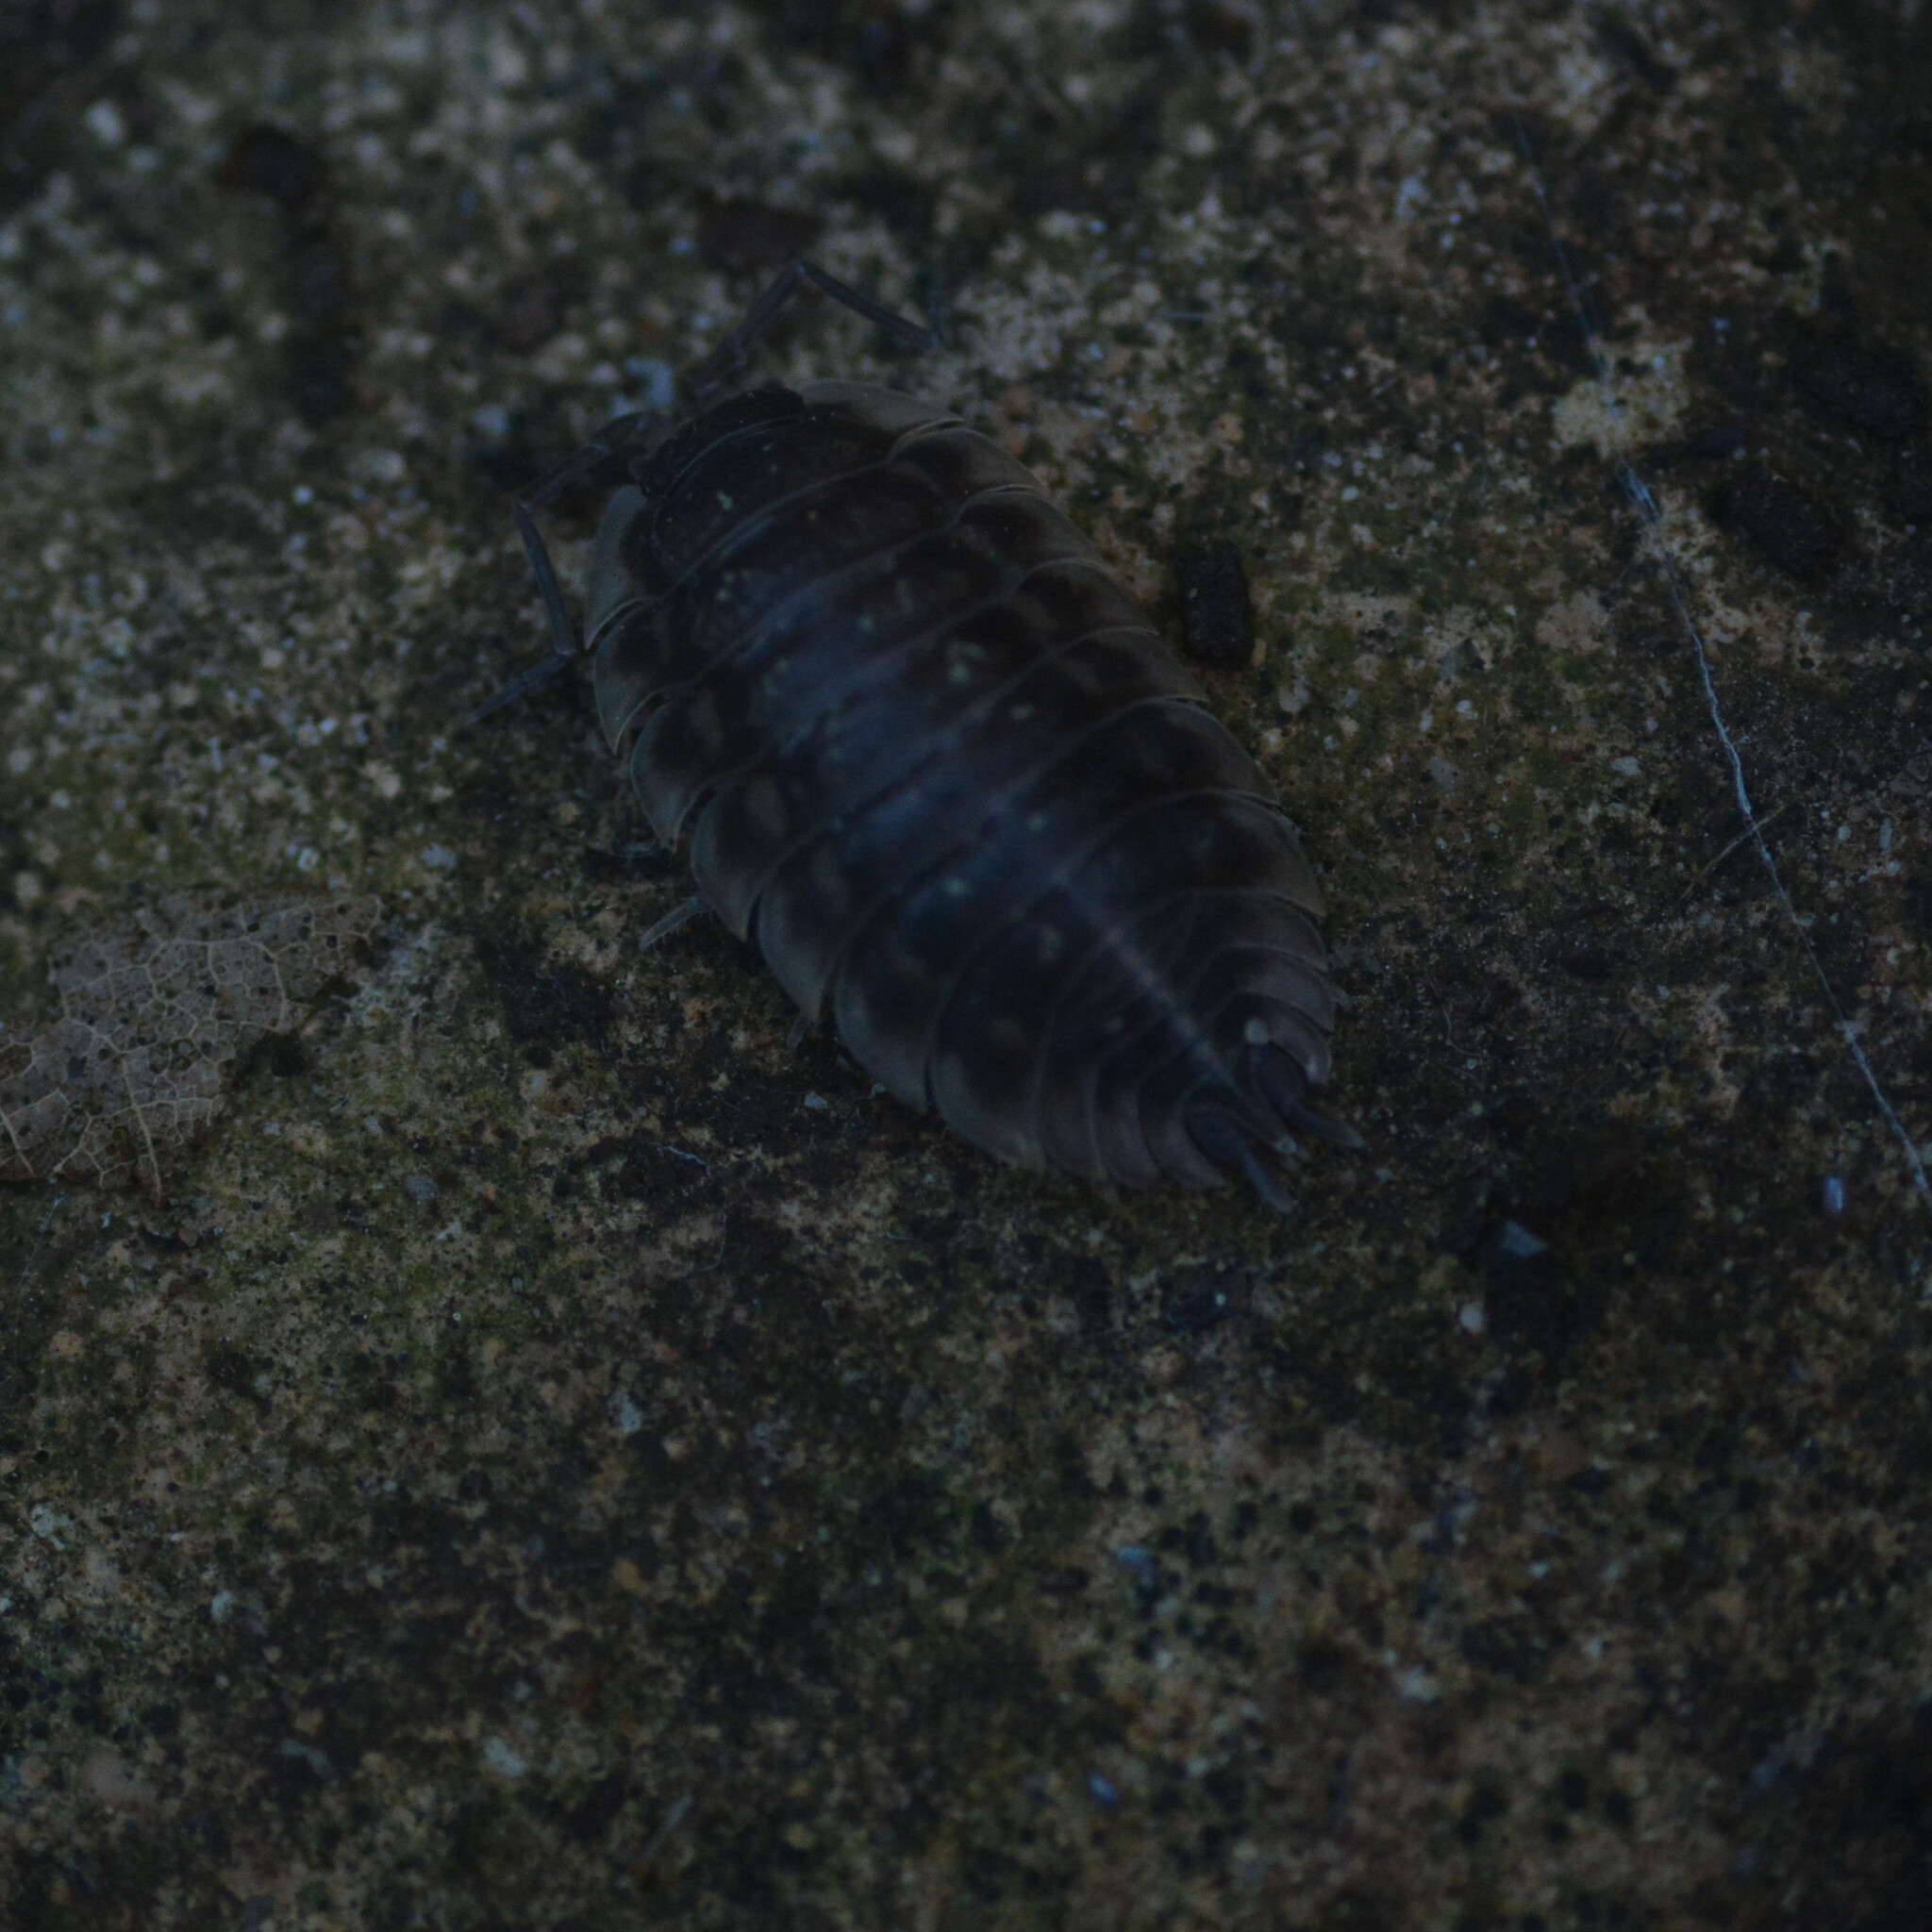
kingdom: Animalia
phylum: Arthropoda
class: Malacostraca
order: Isopoda
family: Oniscidae
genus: Oniscus
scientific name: Oniscus asellus
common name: Common shiny woodlouse
